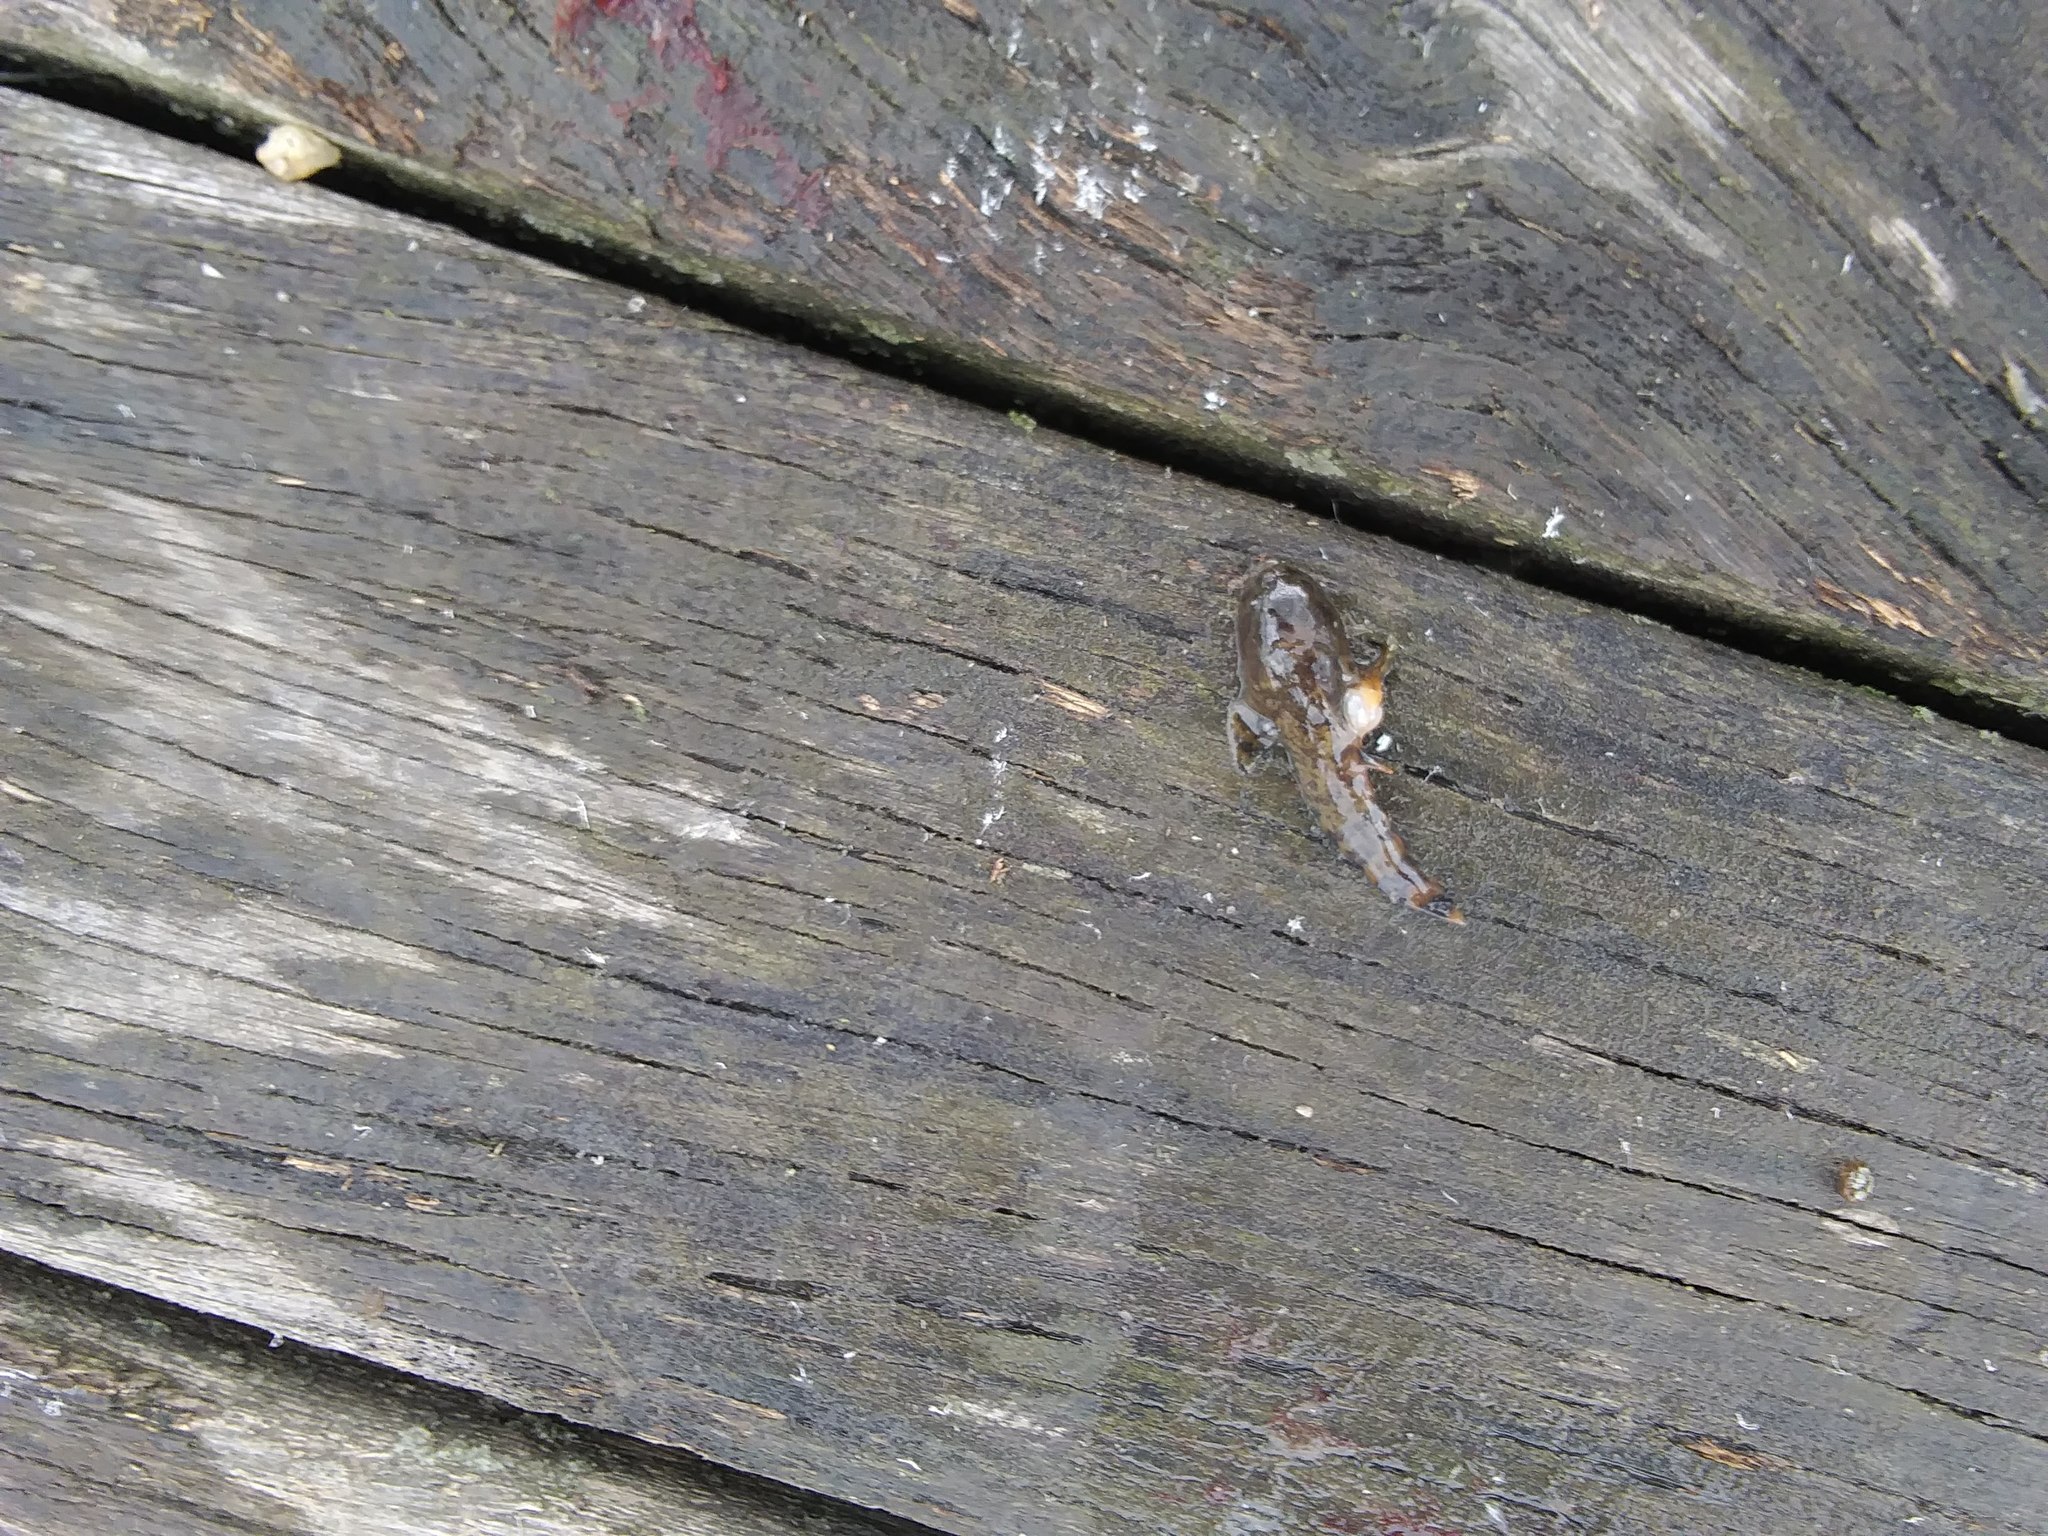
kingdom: Animalia
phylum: Chordata
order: Batrachoidiformes
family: Batrachoididae
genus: Opsanus
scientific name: Opsanus tau
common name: Oyster toadfish
